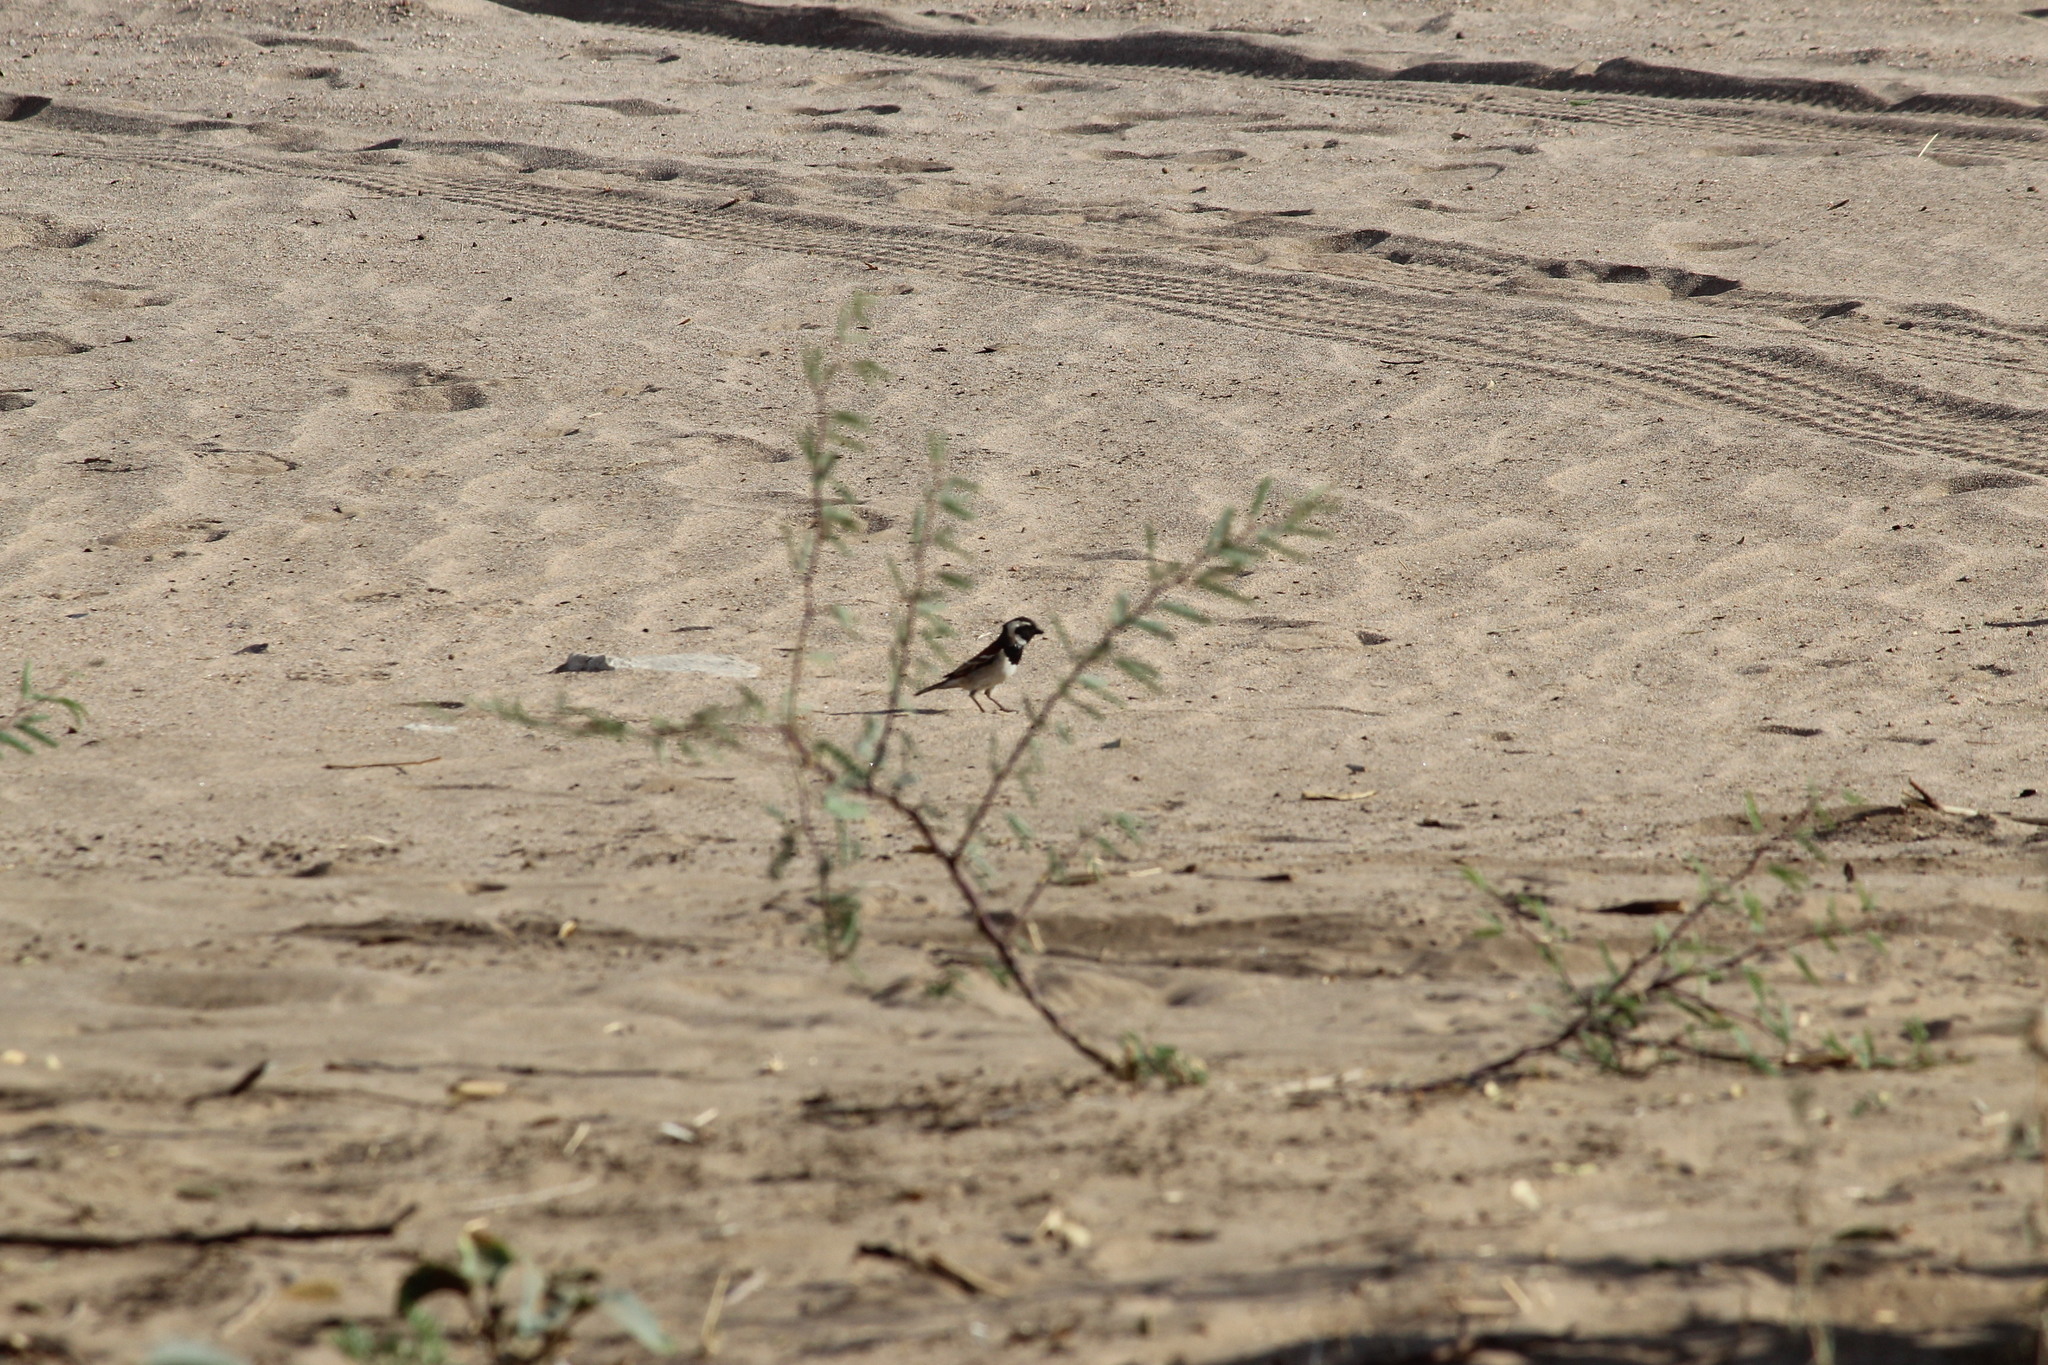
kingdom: Animalia
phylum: Chordata
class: Aves
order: Passeriformes
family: Passeridae
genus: Passer
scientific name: Passer melanurus
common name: Cape sparrow
